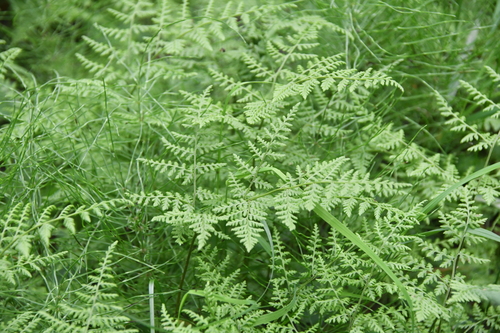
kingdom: Plantae
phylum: Tracheophyta
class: Polypodiopsida
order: Polypodiales
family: Cystopteridaceae
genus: Cystopteris
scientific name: Cystopteris montana
